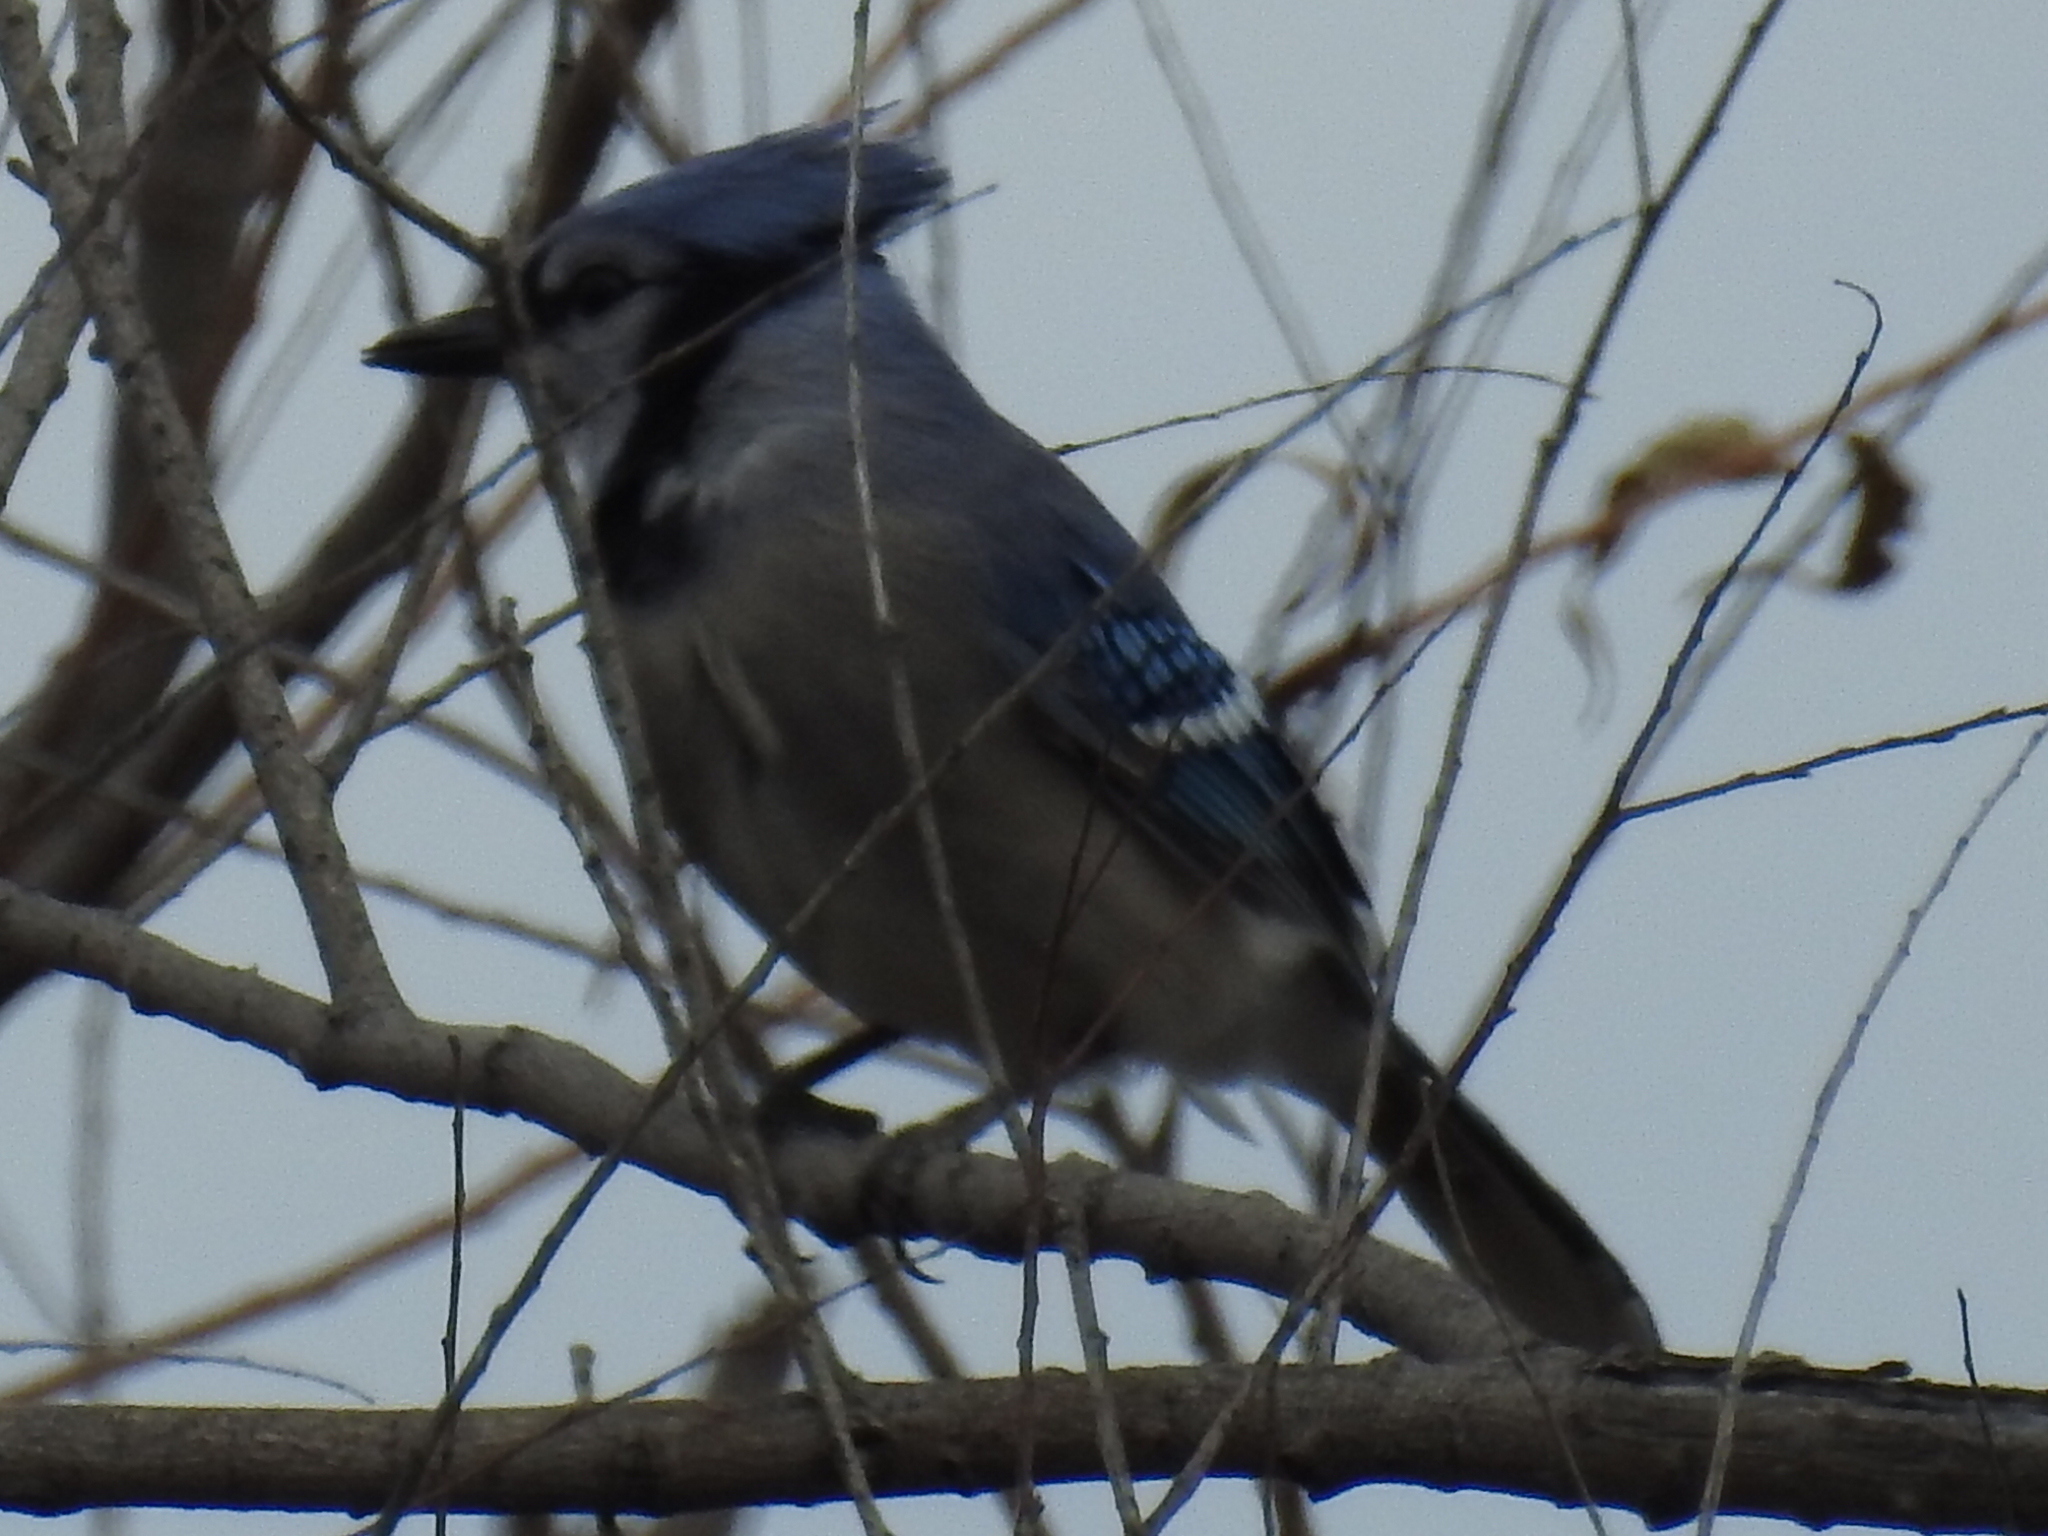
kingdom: Animalia
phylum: Chordata
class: Aves
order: Passeriformes
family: Corvidae
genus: Cyanocitta
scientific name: Cyanocitta cristata
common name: Blue jay
